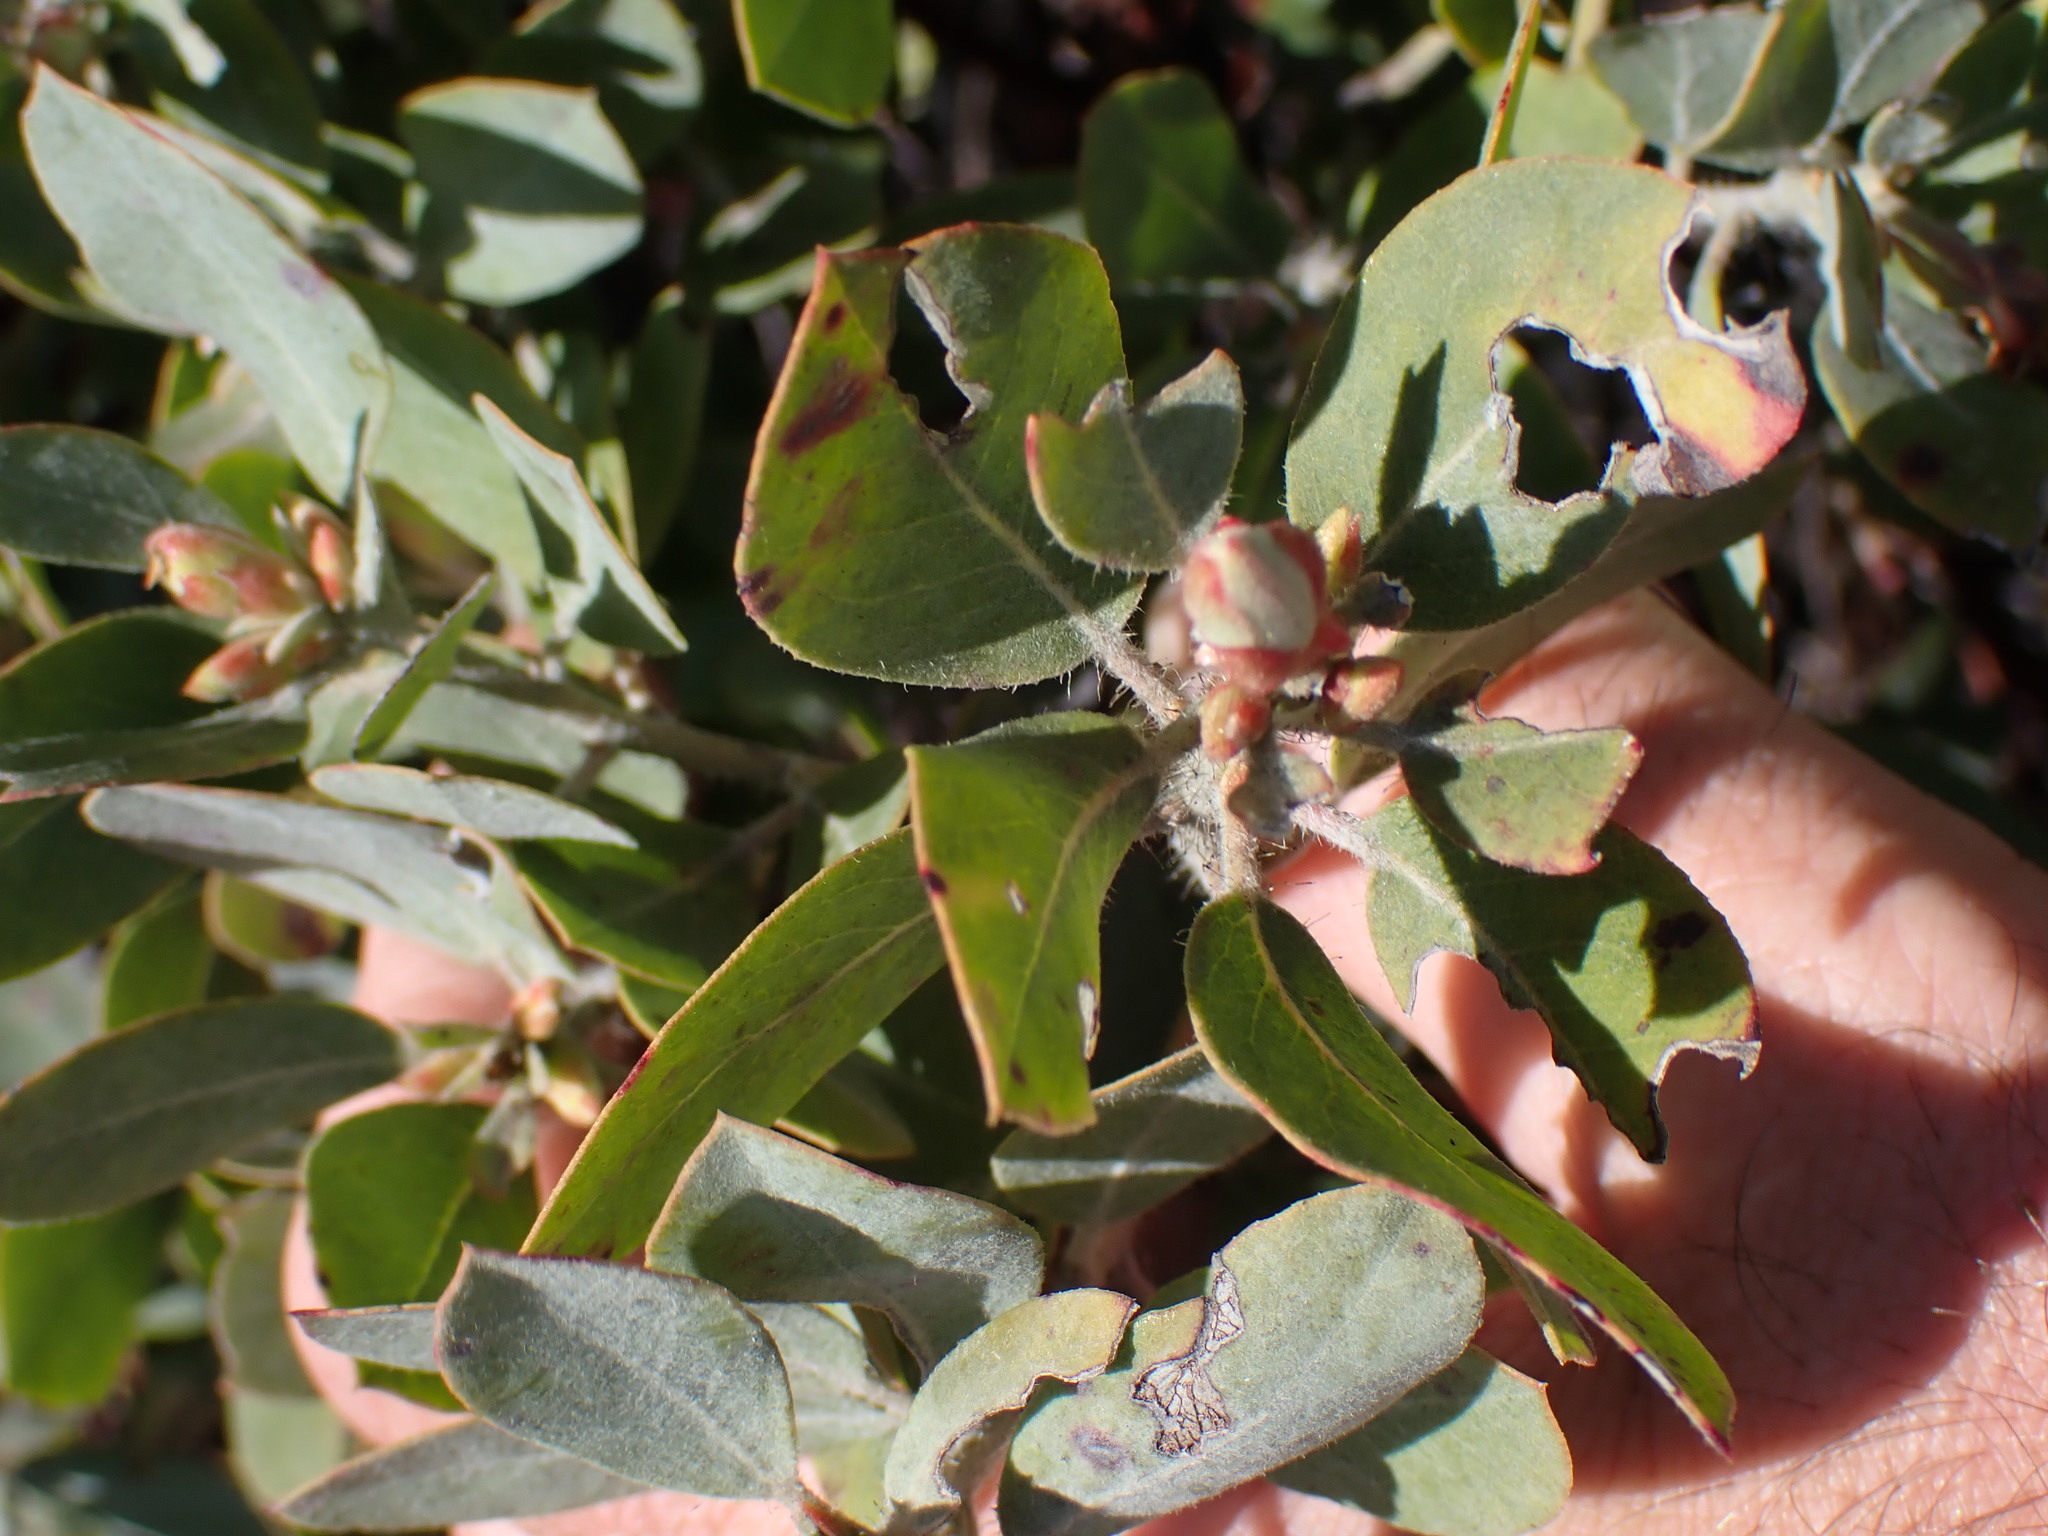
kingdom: Plantae
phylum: Tracheophyta
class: Magnoliopsida
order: Ericales
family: Ericaceae
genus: Arctostaphylos
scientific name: Arctostaphylos columbiana
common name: Bristly bearberry
